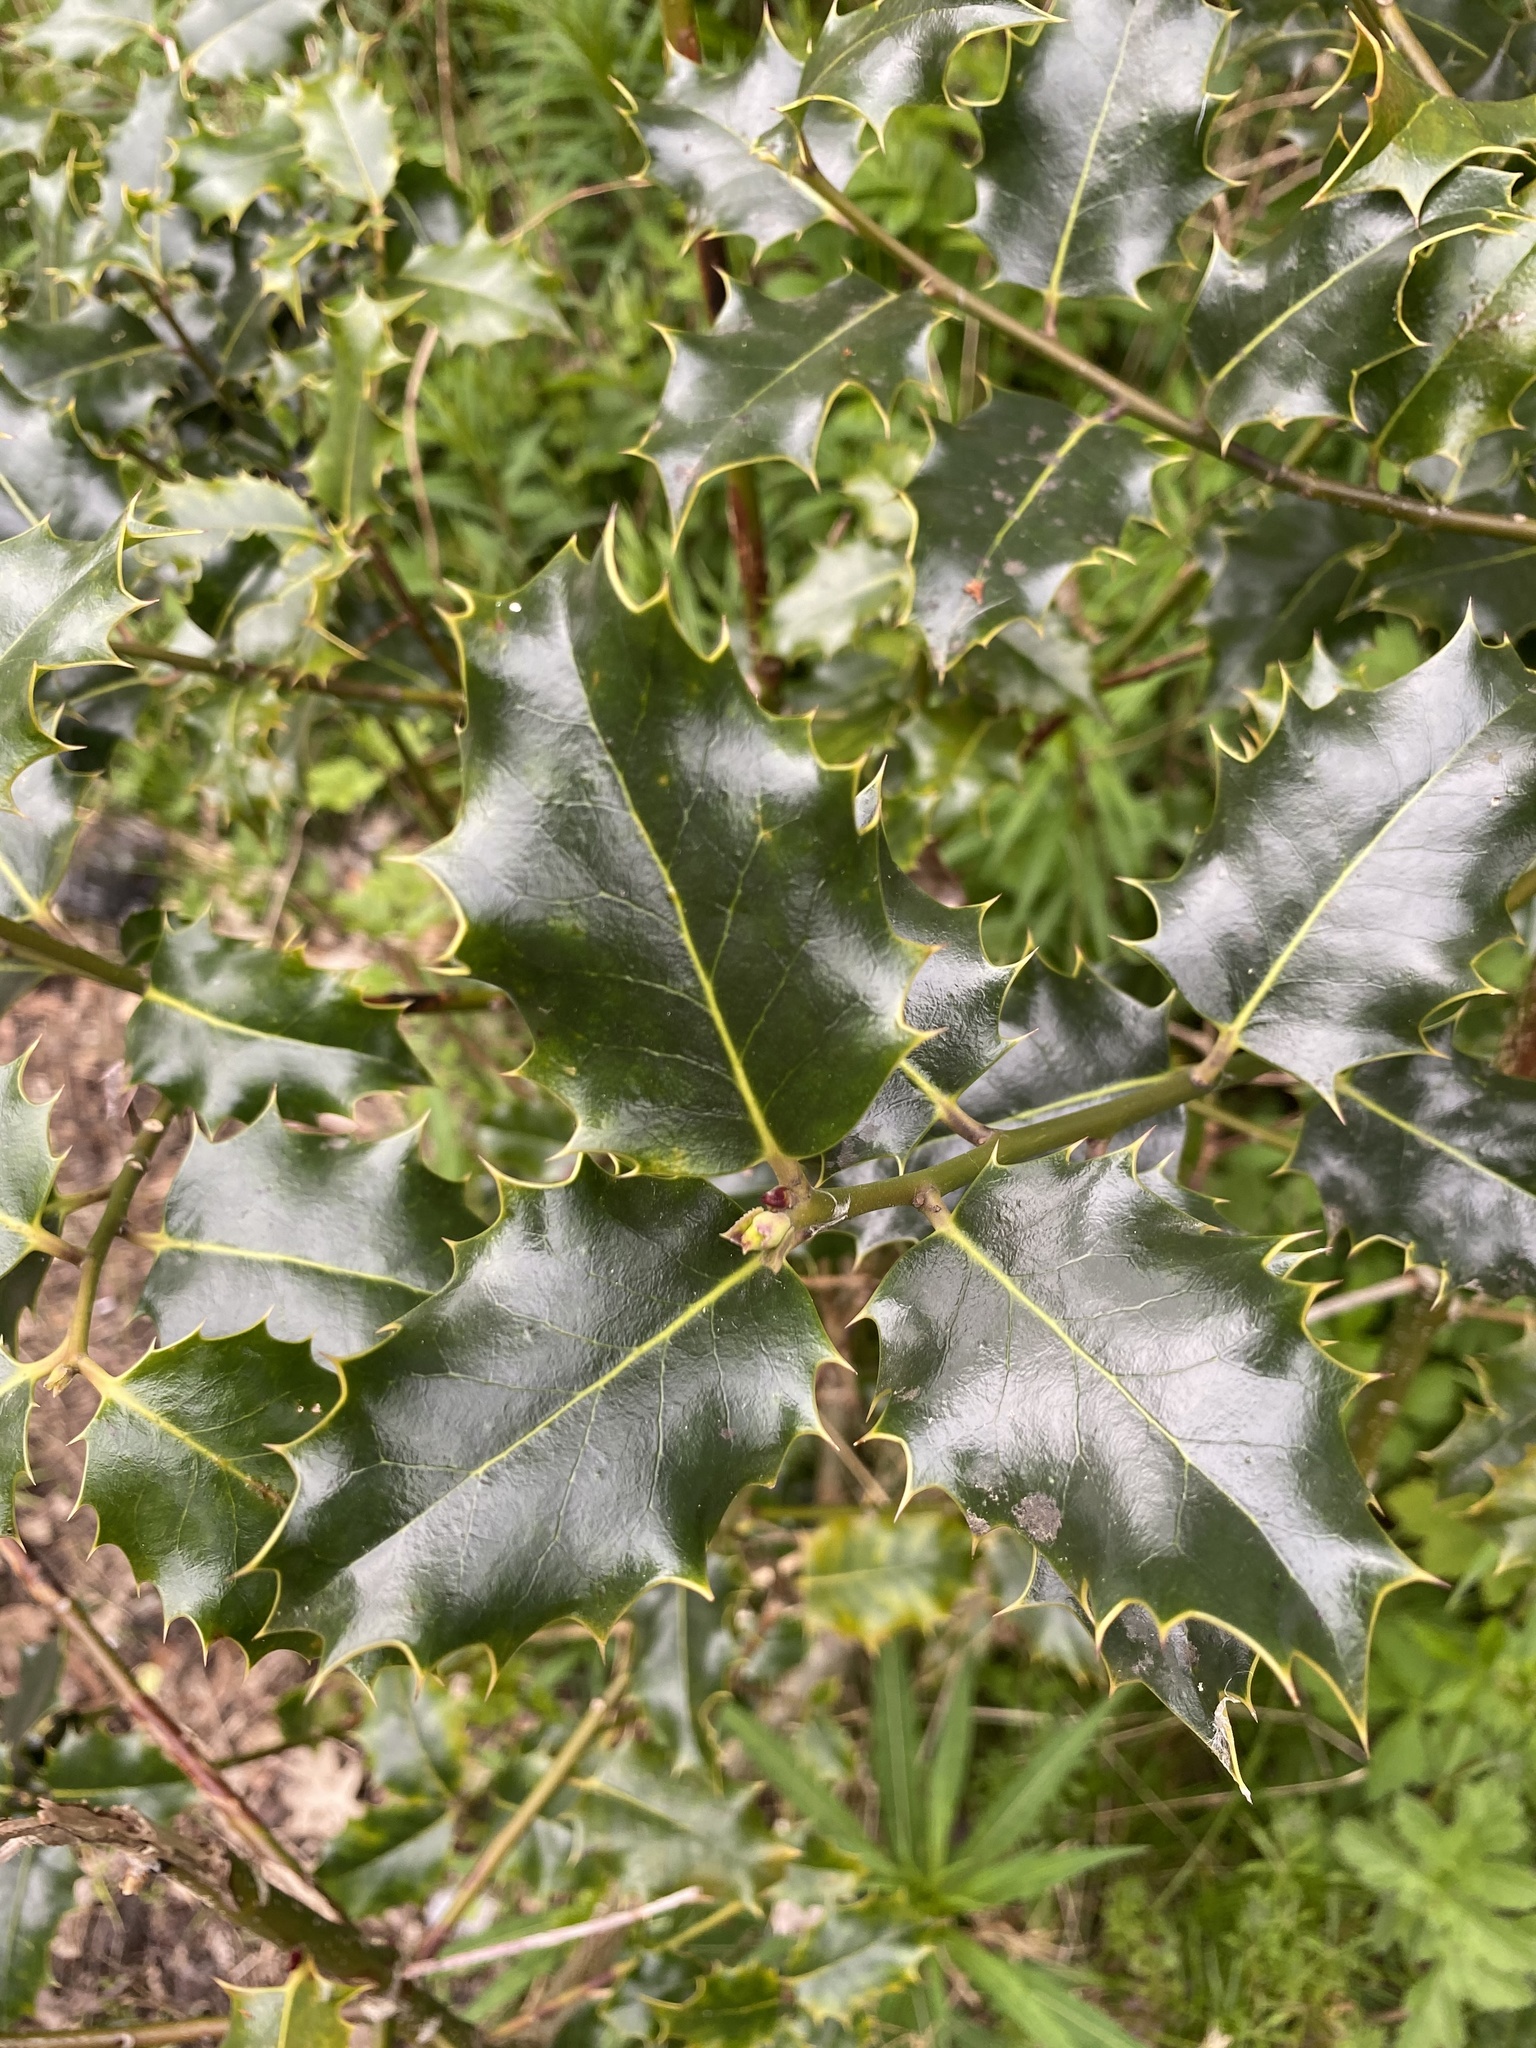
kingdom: Plantae
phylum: Tracheophyta
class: Magnoliopsida
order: Aquifoliales
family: Aquifoliaceae
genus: Ilex
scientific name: Ilex aquifolium
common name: English holly
